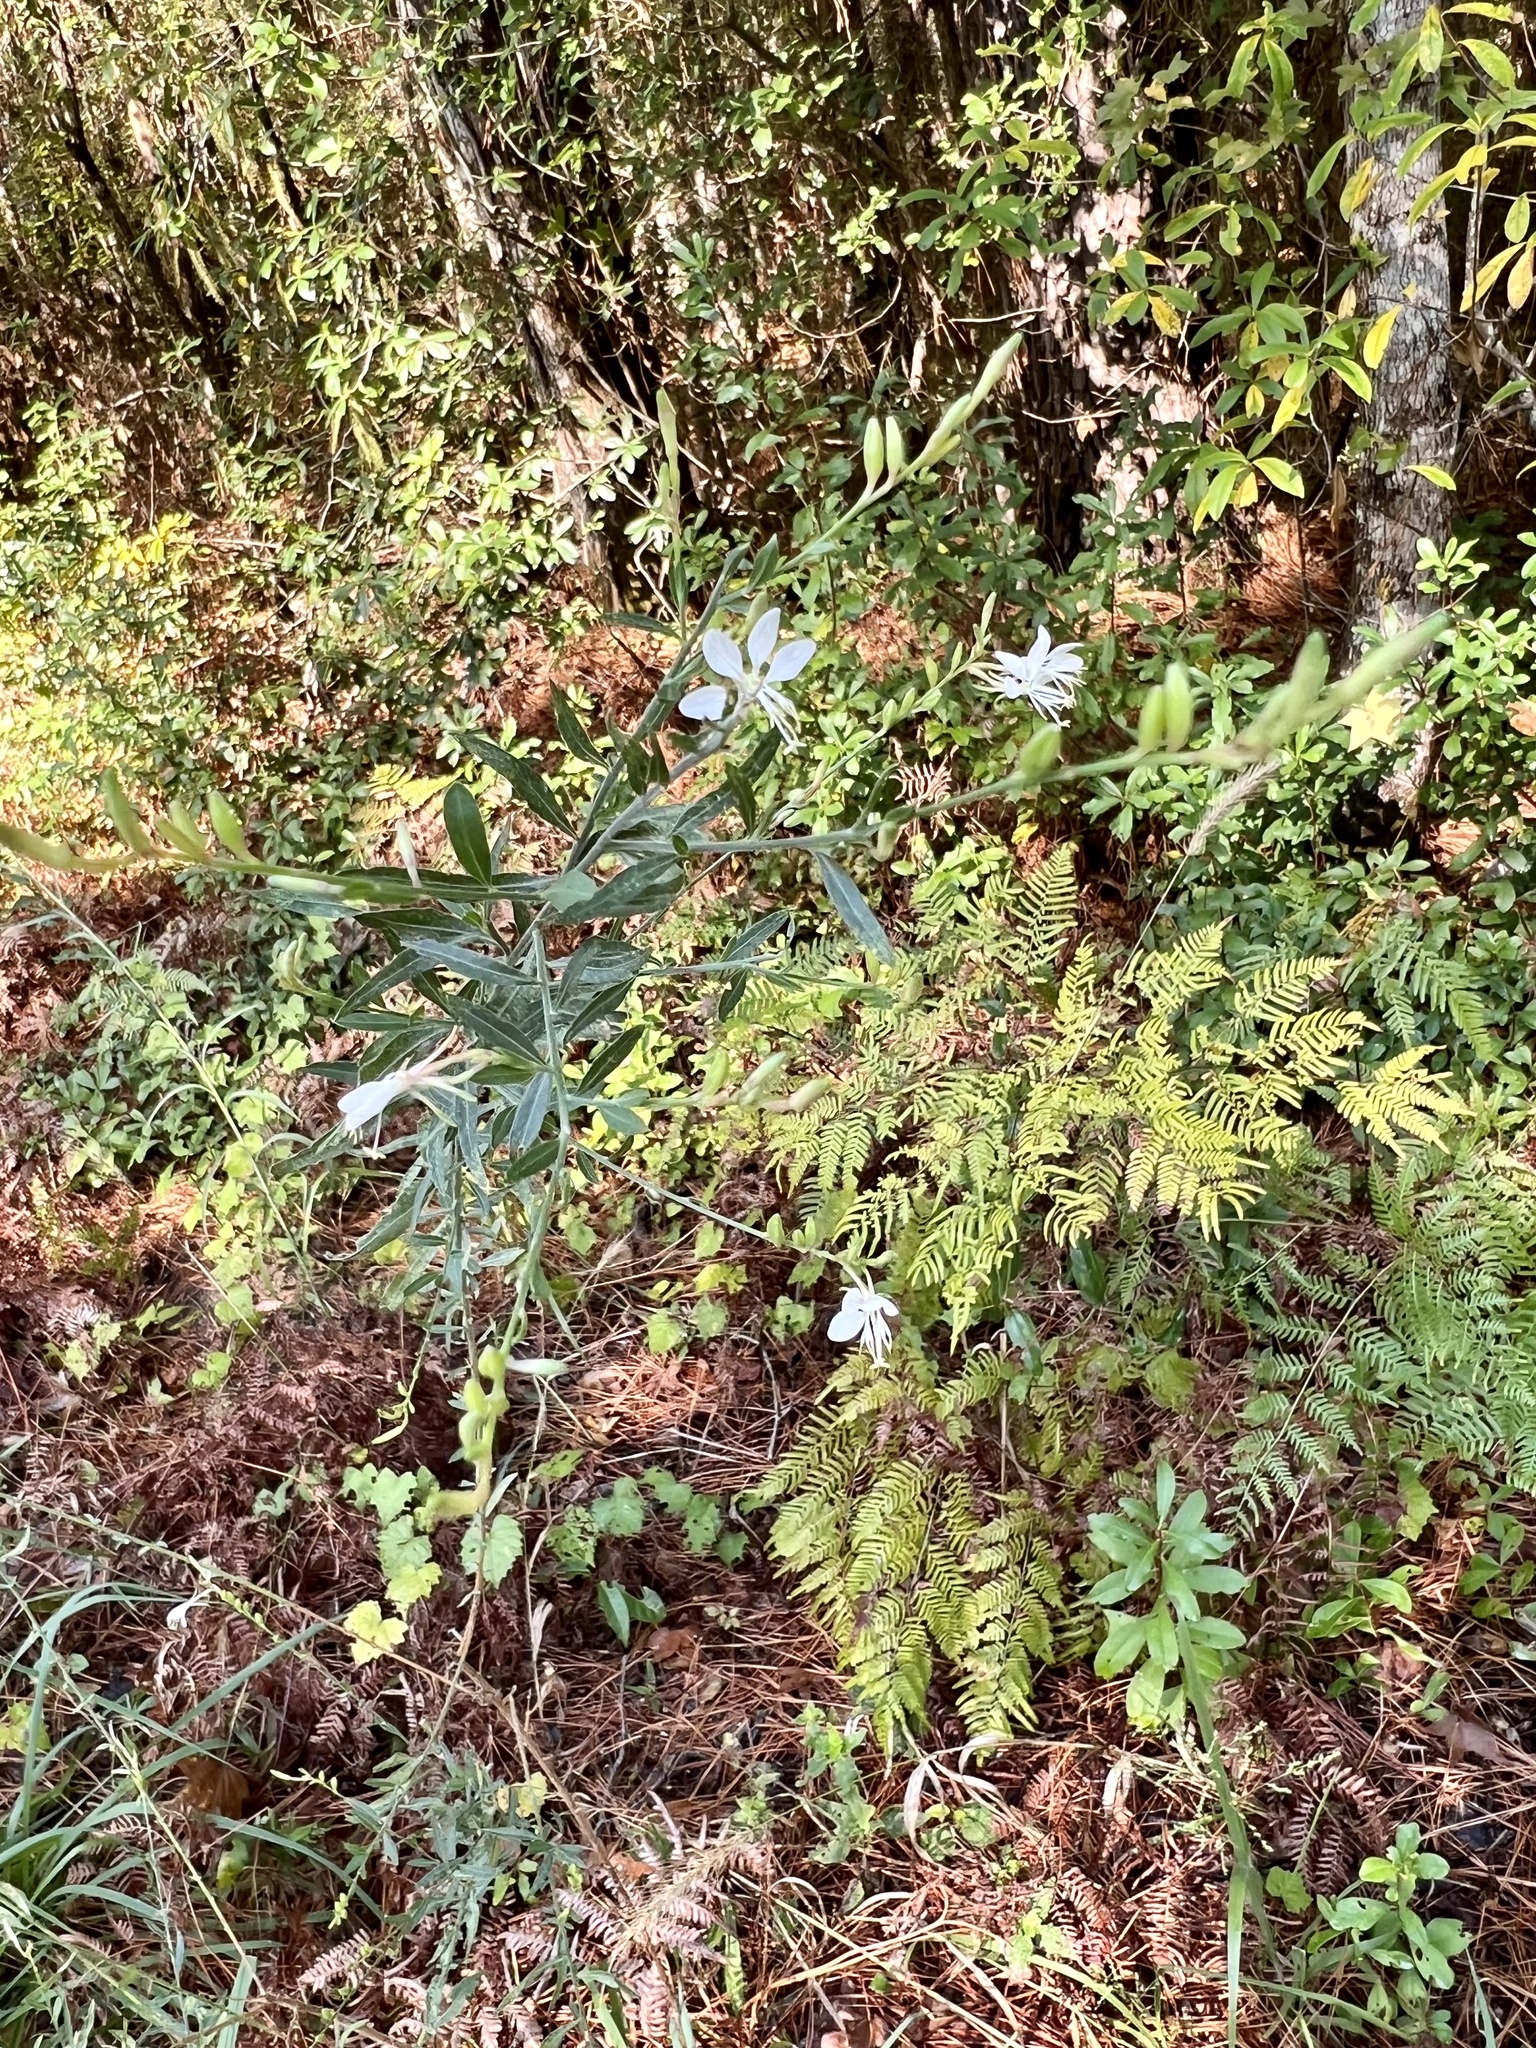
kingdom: Plantae
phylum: Tracheophyta
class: Magnoliopsida
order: Myrtales
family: Onagraceae
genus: Oenothera
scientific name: Oenothera lindheimeri
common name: Lindheimer's beeblossom
